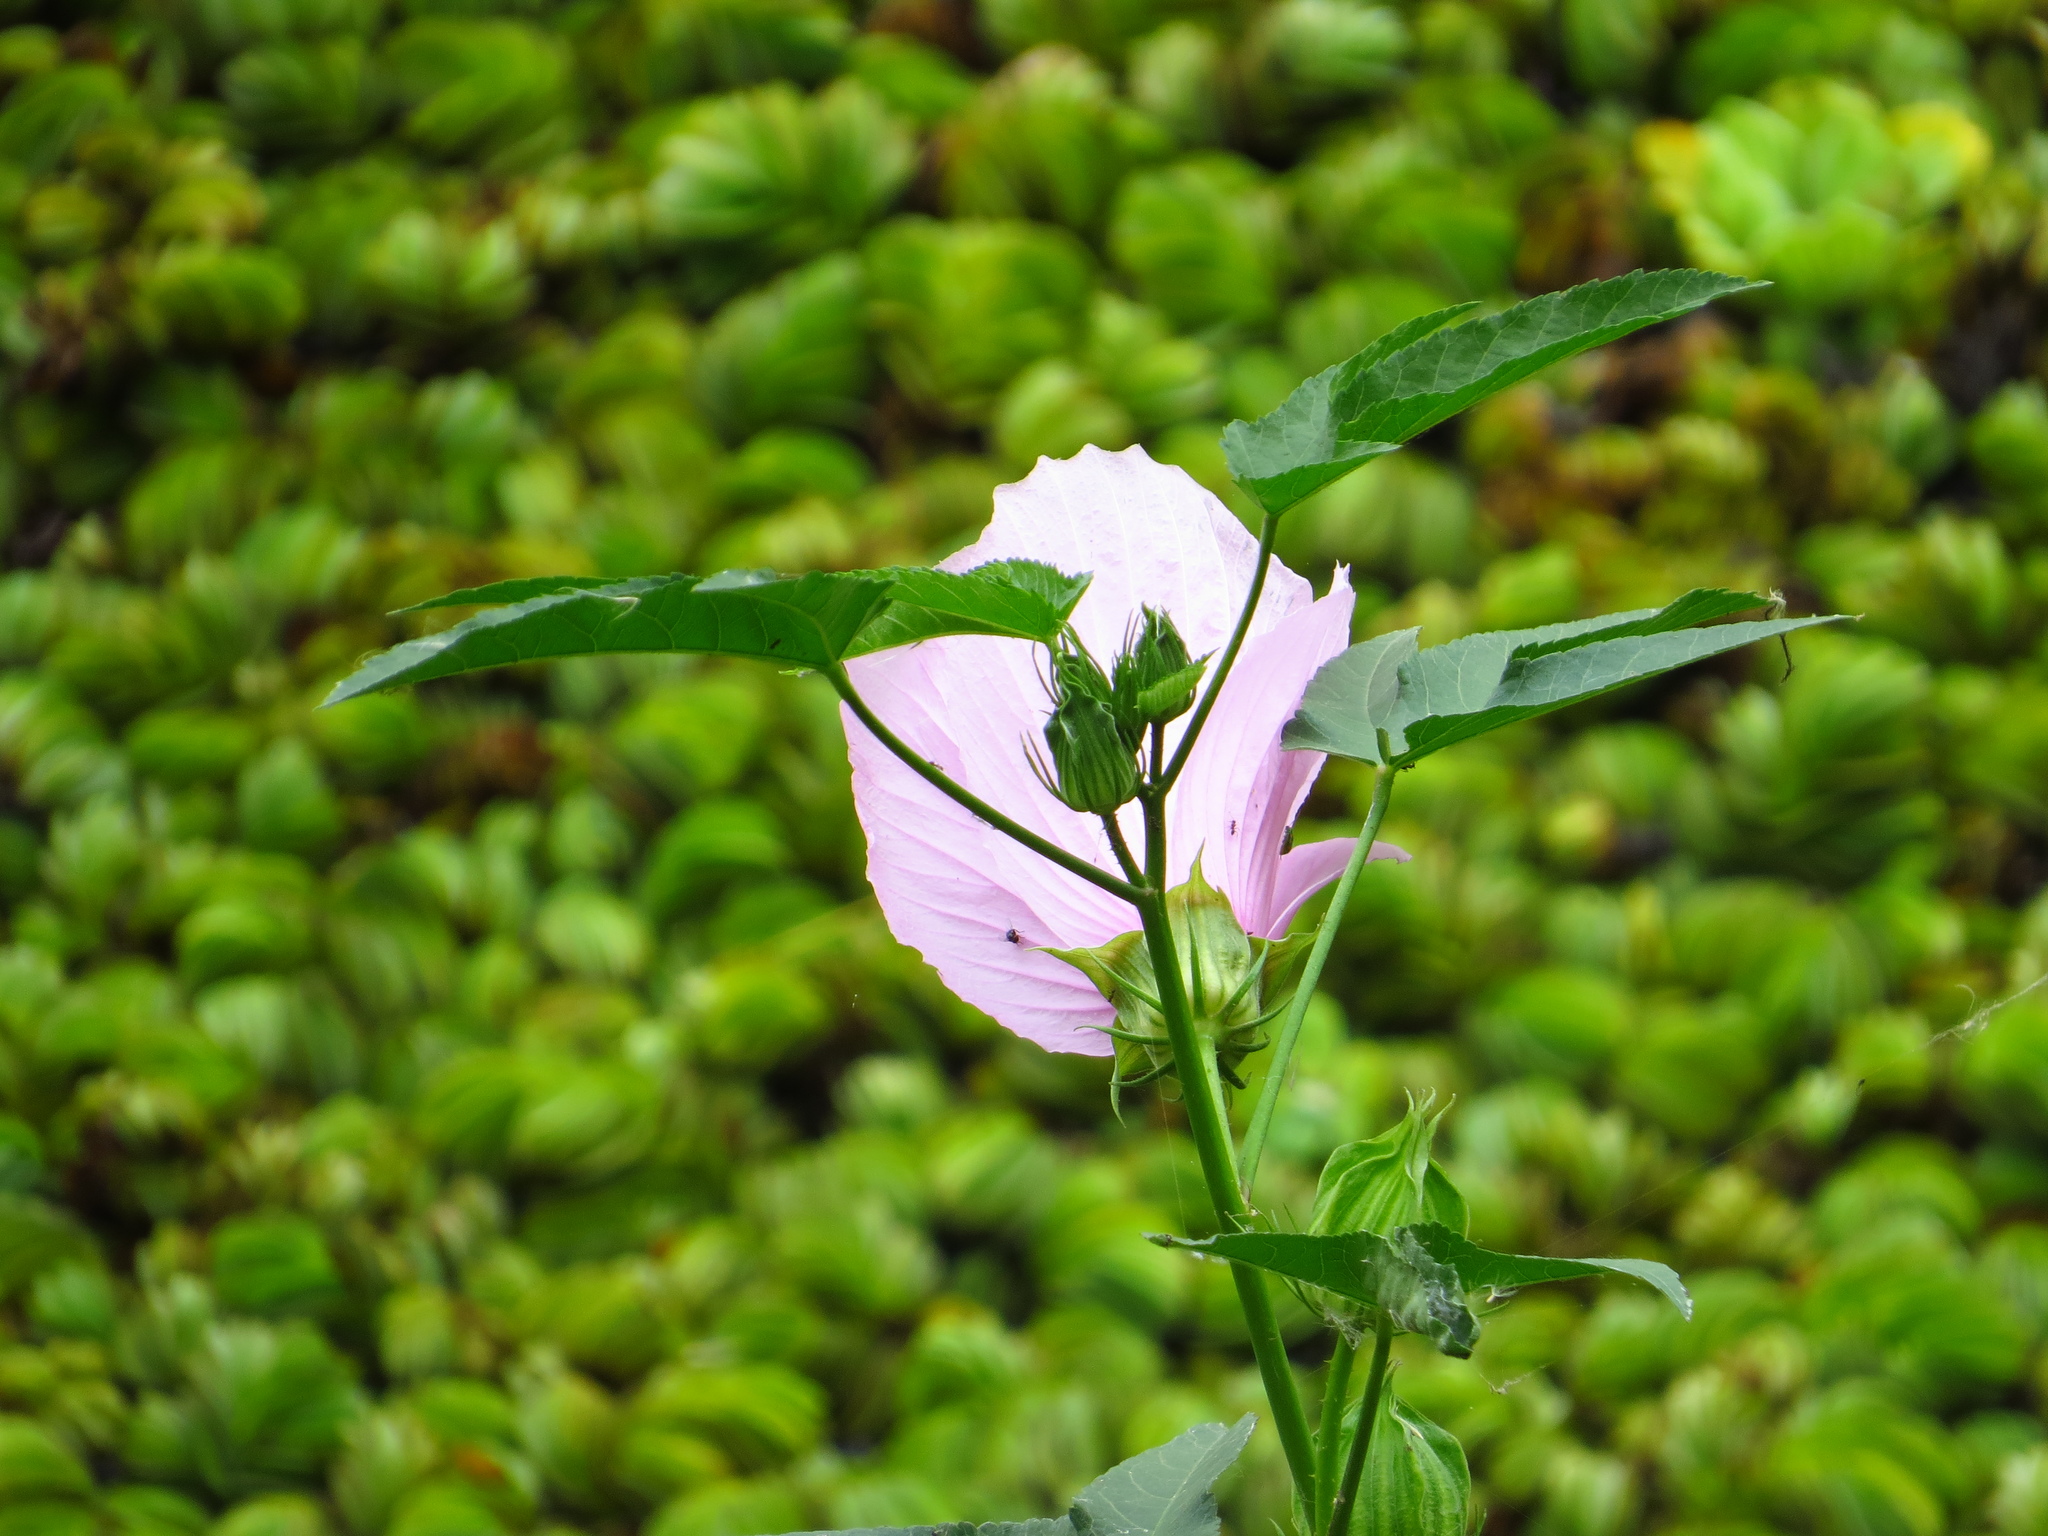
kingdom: Plantae
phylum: Tracheophyta
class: Magnoliopsida
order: Malvales
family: Malvaceae
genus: Hibiscus
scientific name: Hibiscus striatus
